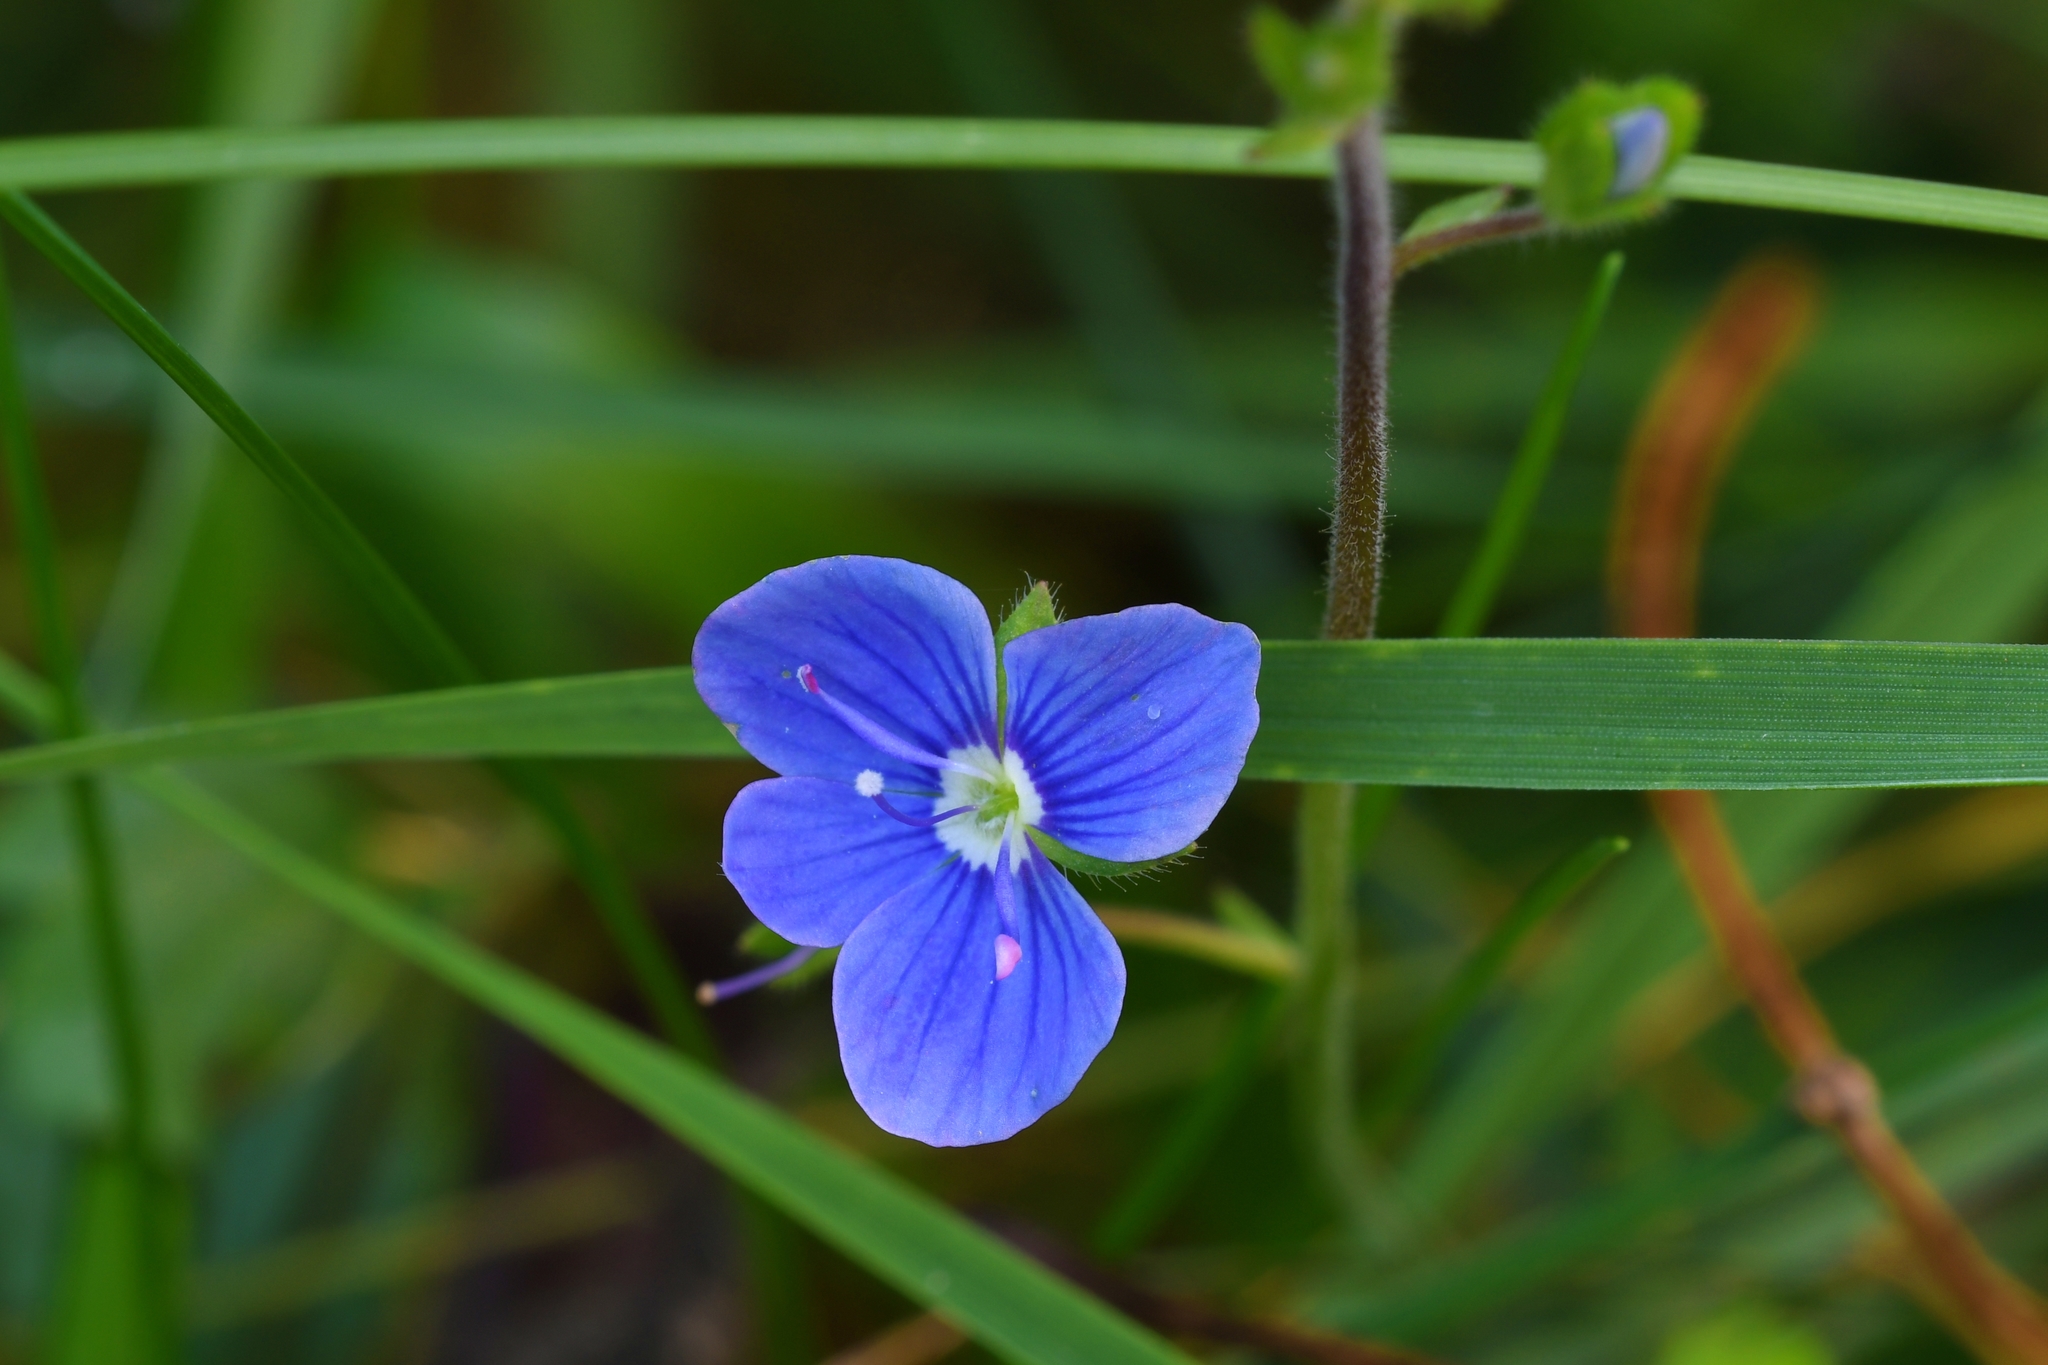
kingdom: Plantae
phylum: Tracheophyta
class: Magnoliopsida
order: Lamiales
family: Plantaginaceae
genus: Veronica
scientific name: Veronica chamaedrys
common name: Germander speedwell
